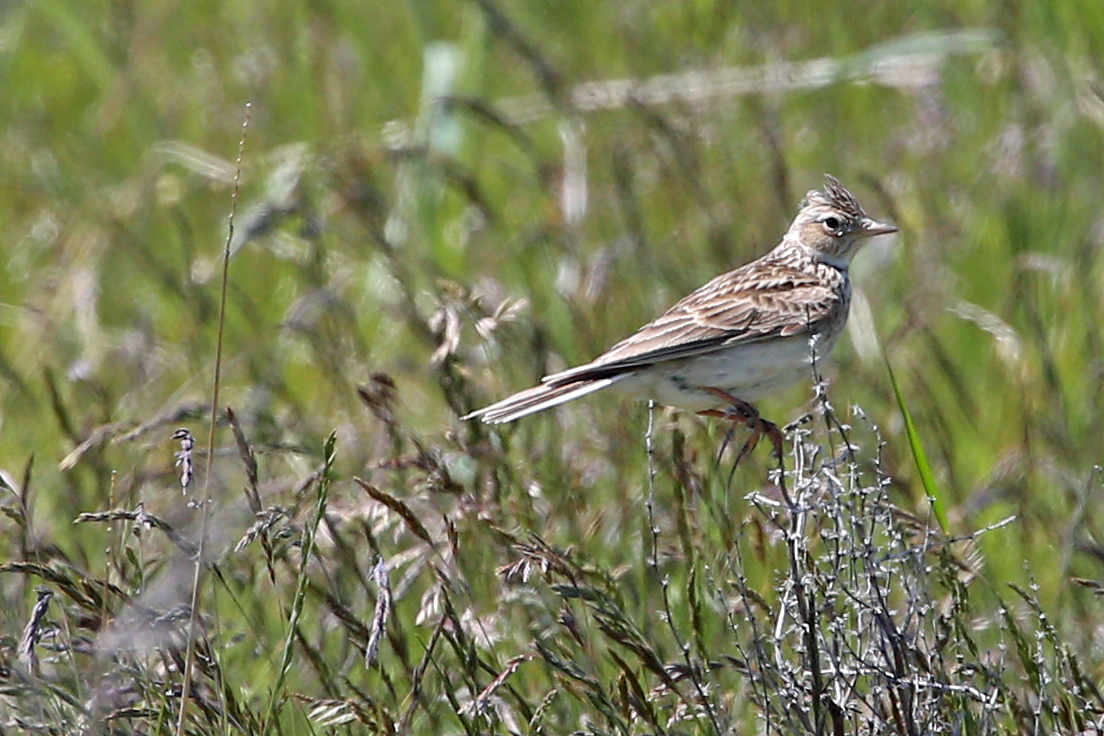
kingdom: Animalia
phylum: Chordata
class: Aves
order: Passeriformes
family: Alaudidae
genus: Alauda
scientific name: Alauda arvensis
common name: Eurasian skylark
